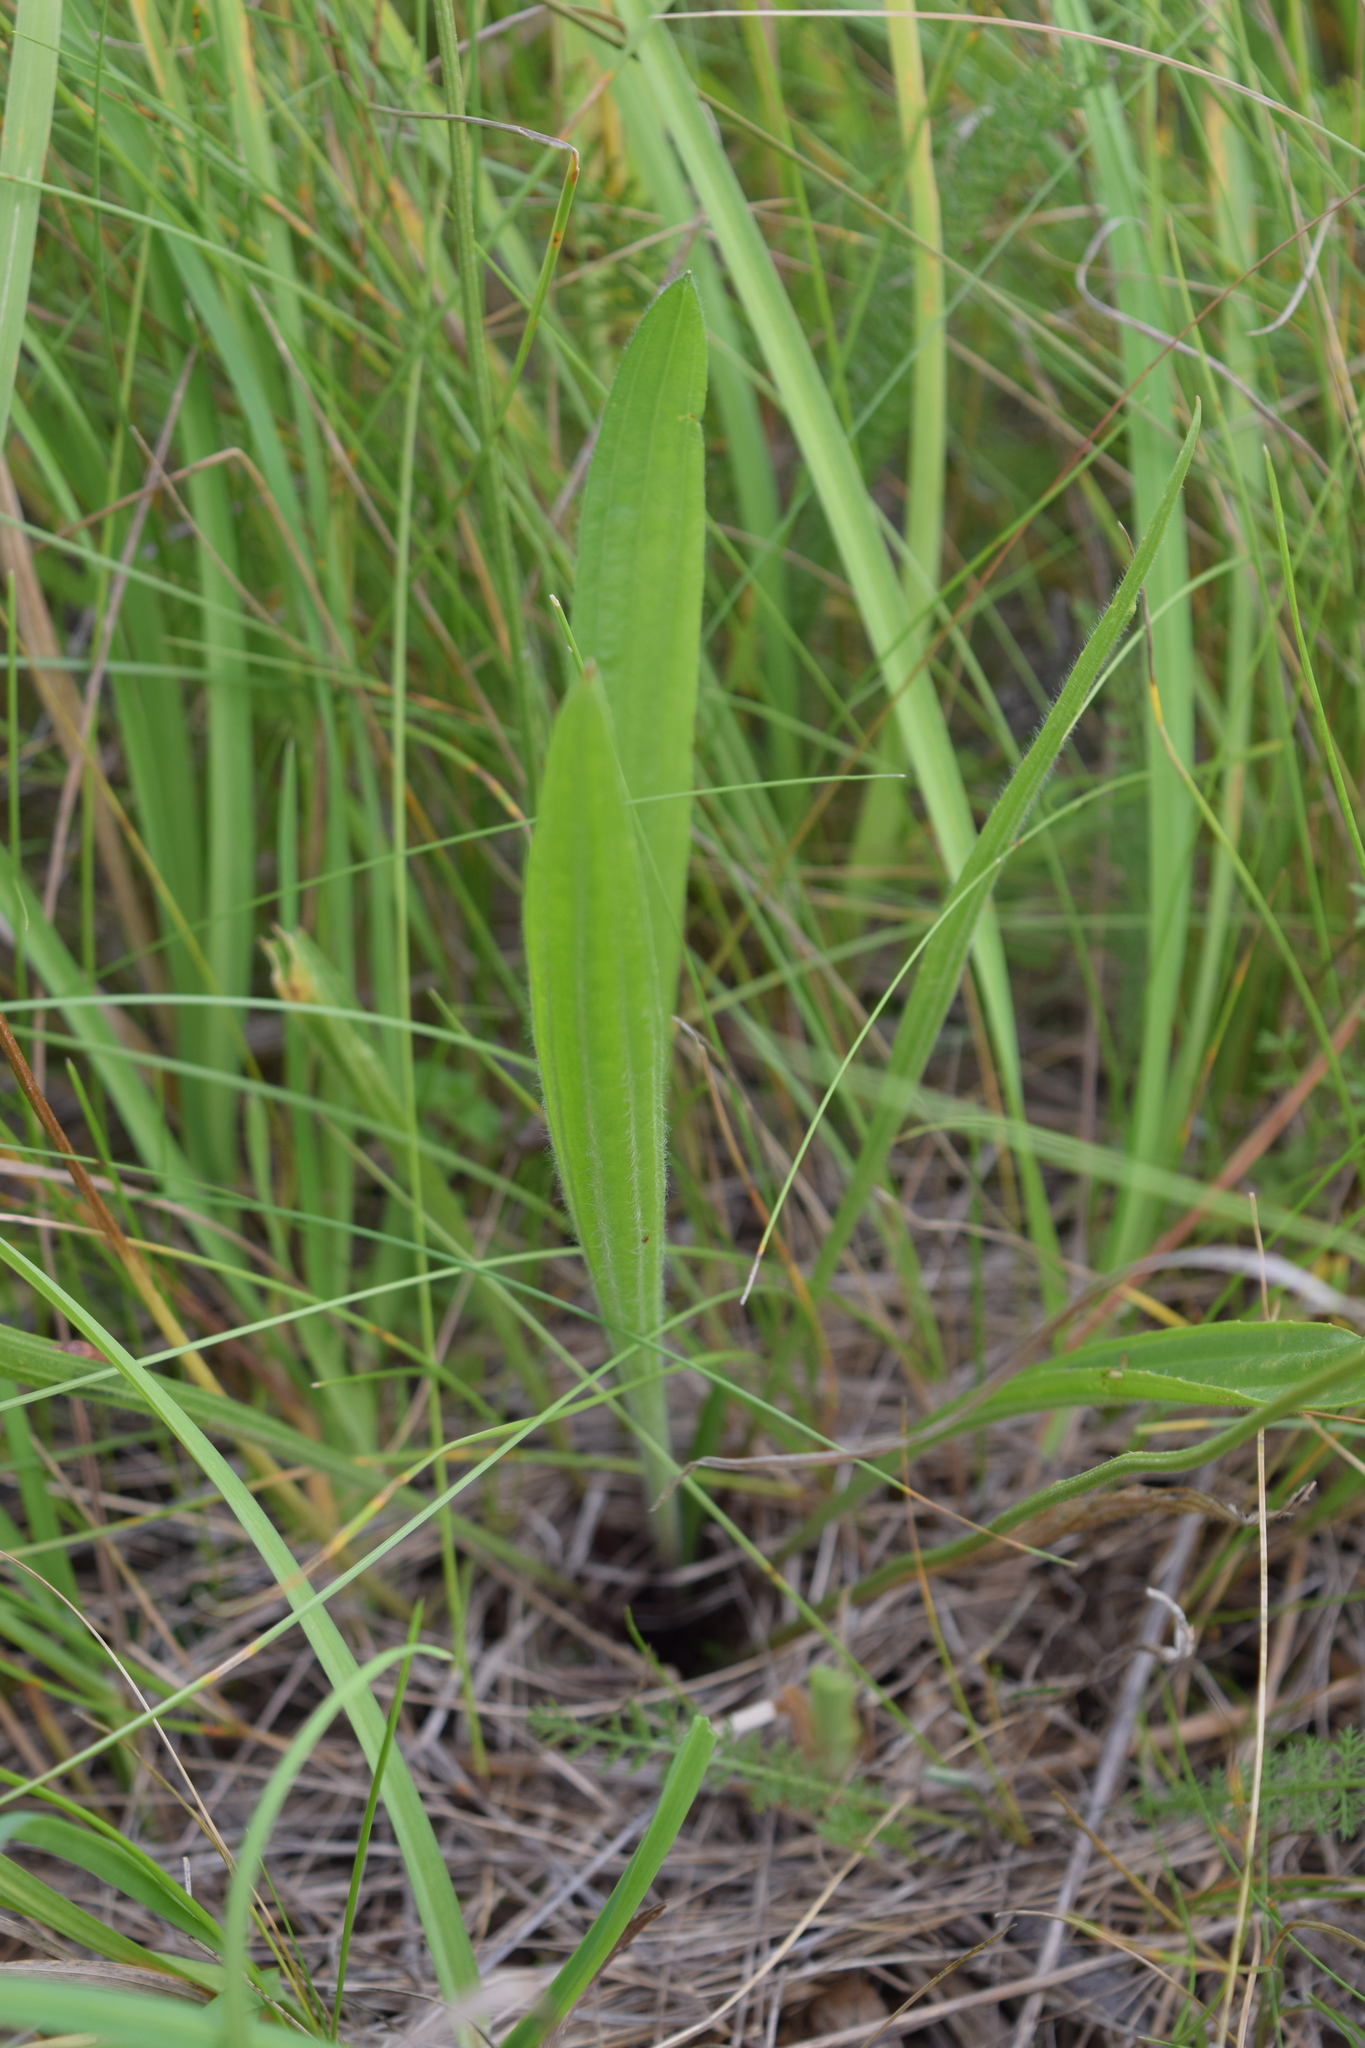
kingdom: Plantae
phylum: Tracheophyta
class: Magnoliopsida
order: Lamiales
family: Plantaginaceae
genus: Plantago
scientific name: Plantago lanceolata
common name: Ribwort plantain
